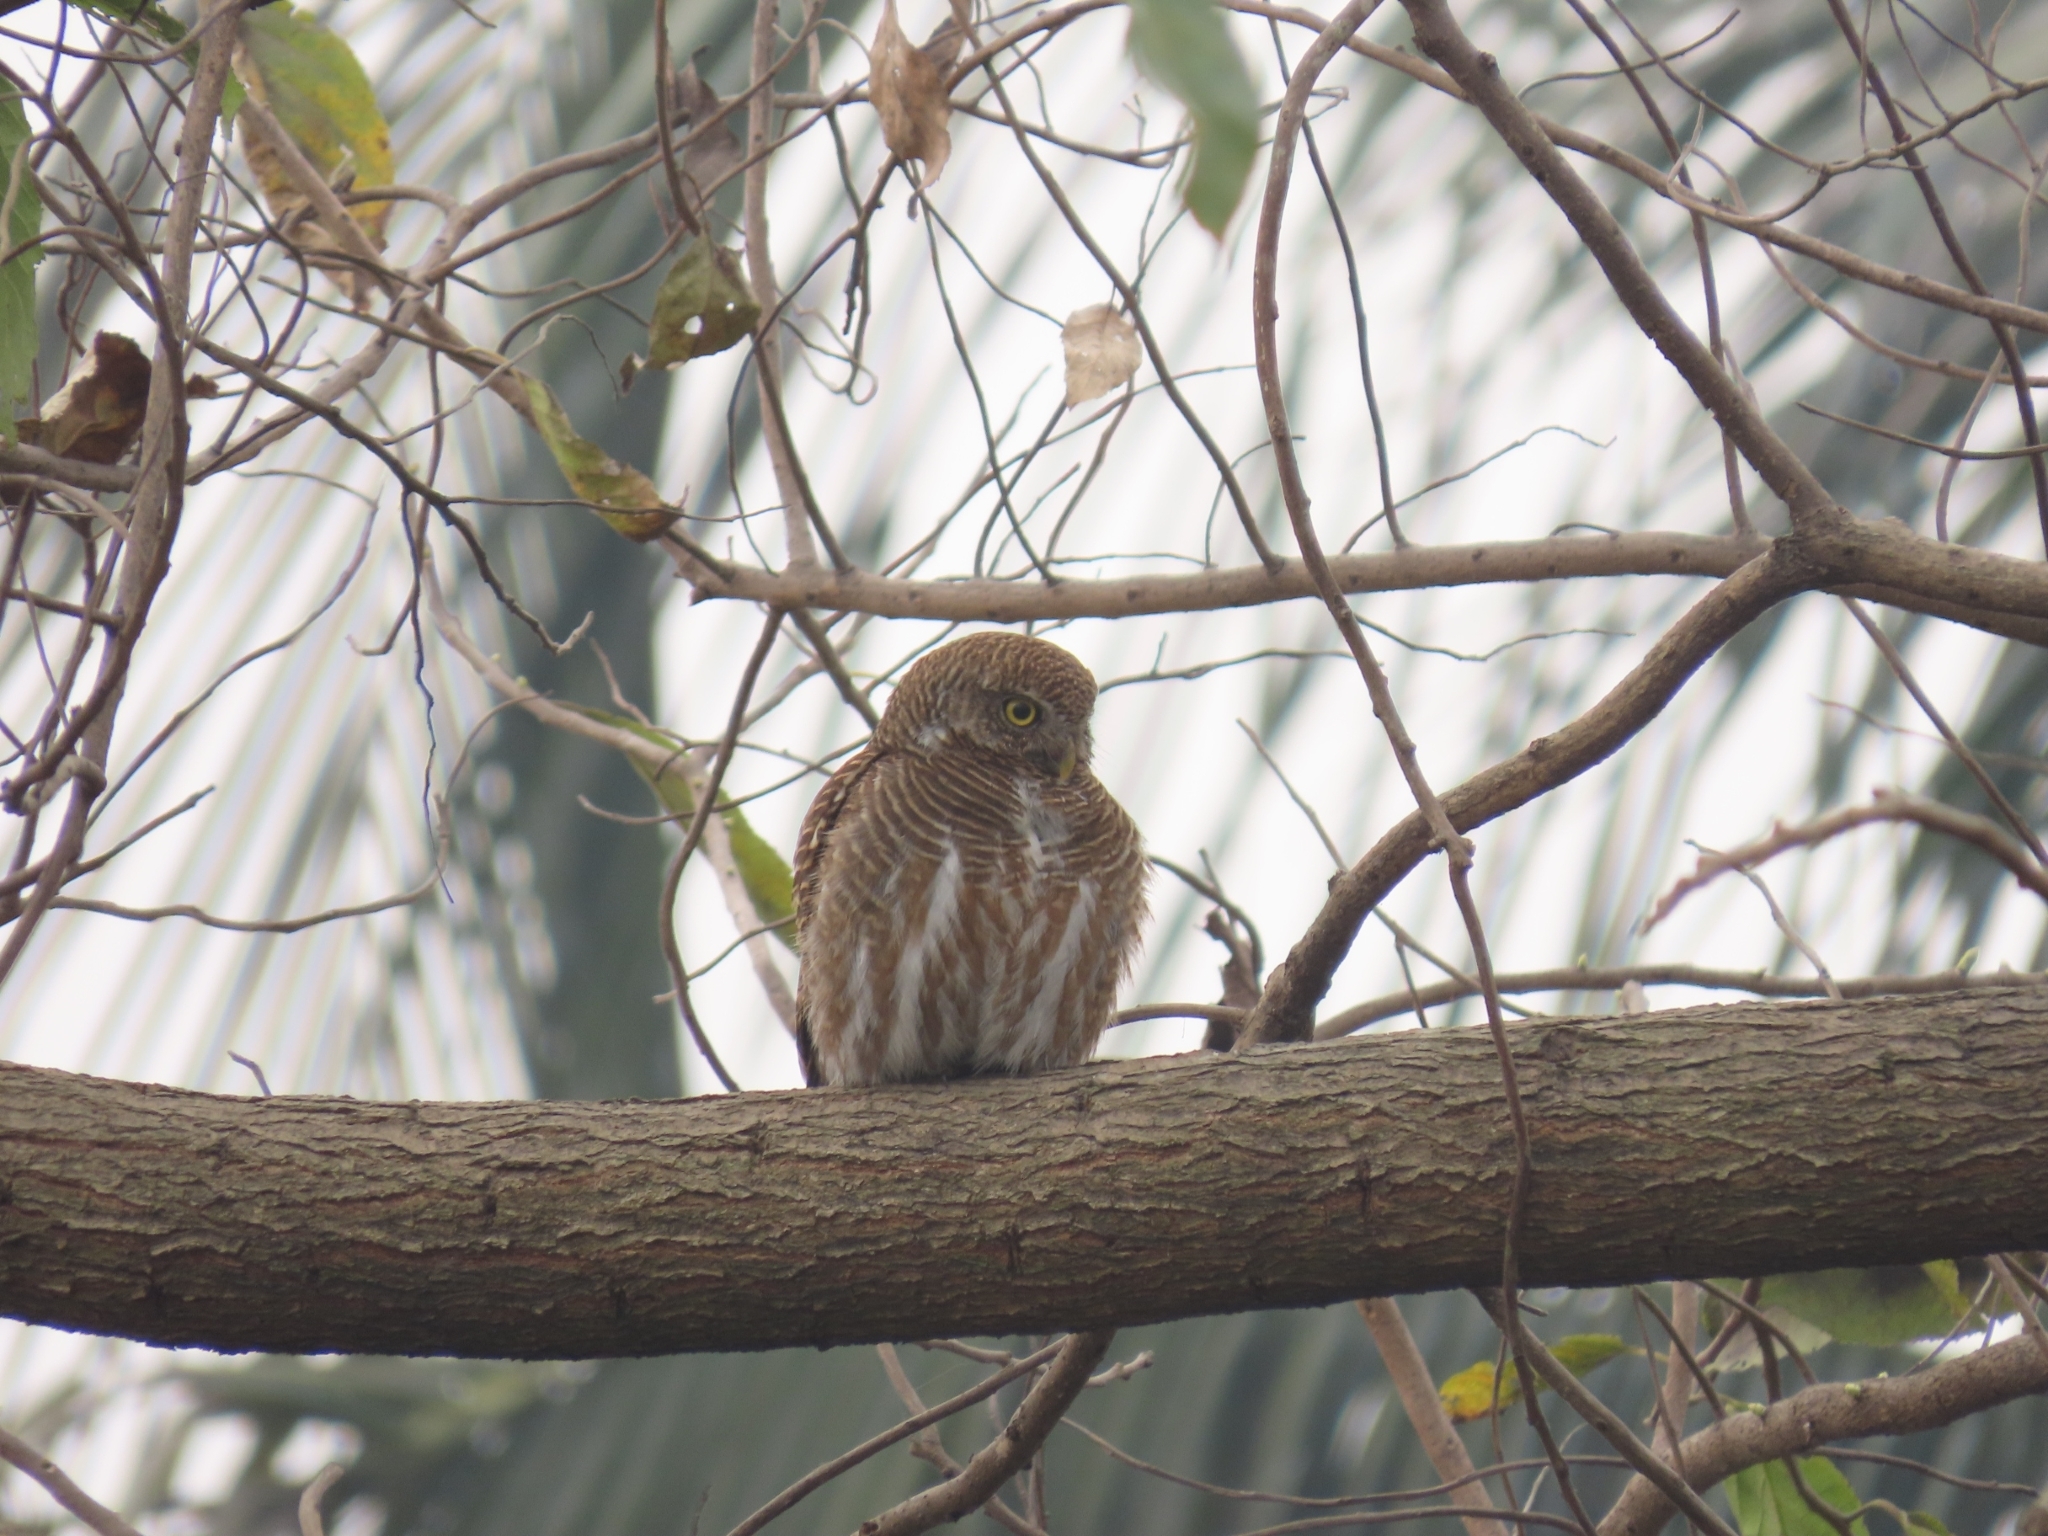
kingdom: Animalia
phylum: Chordata
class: Aves
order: Strigiformes
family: Strigidae
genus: Glaucidium
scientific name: Glaucidium cuculoides
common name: Asian barred owlet
